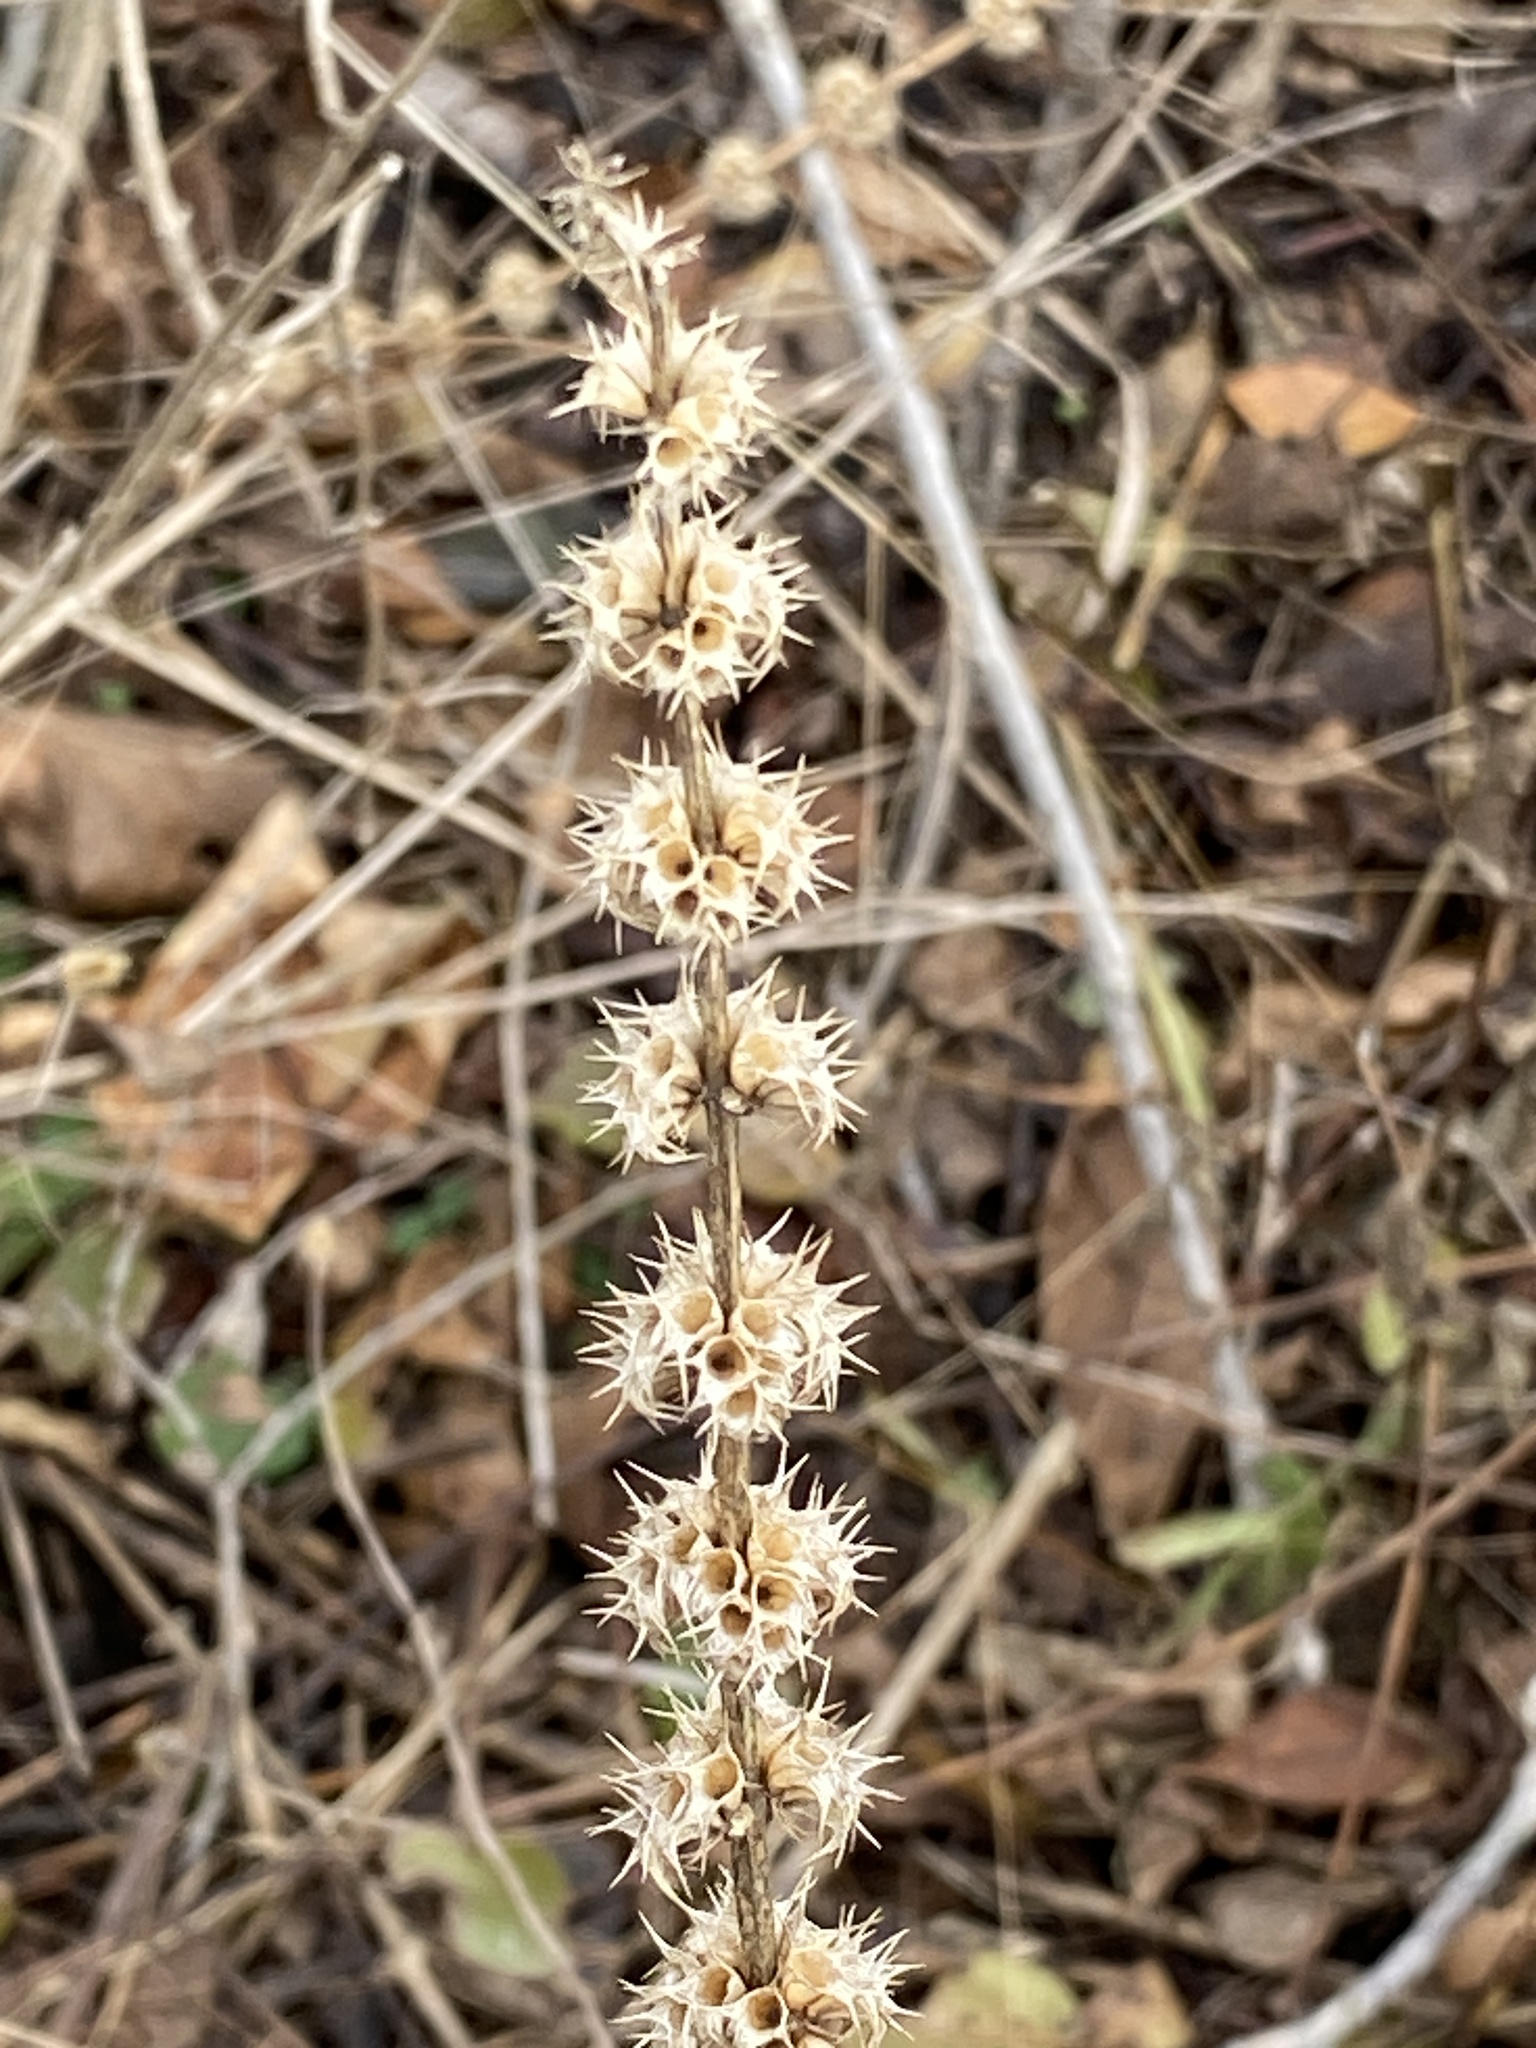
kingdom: Plantae
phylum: Tracheophyta
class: Magnoliopsida
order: Lamiales
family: Lamiaceae
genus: Leonurus
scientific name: Leonurus cardiaca
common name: Motherwort
